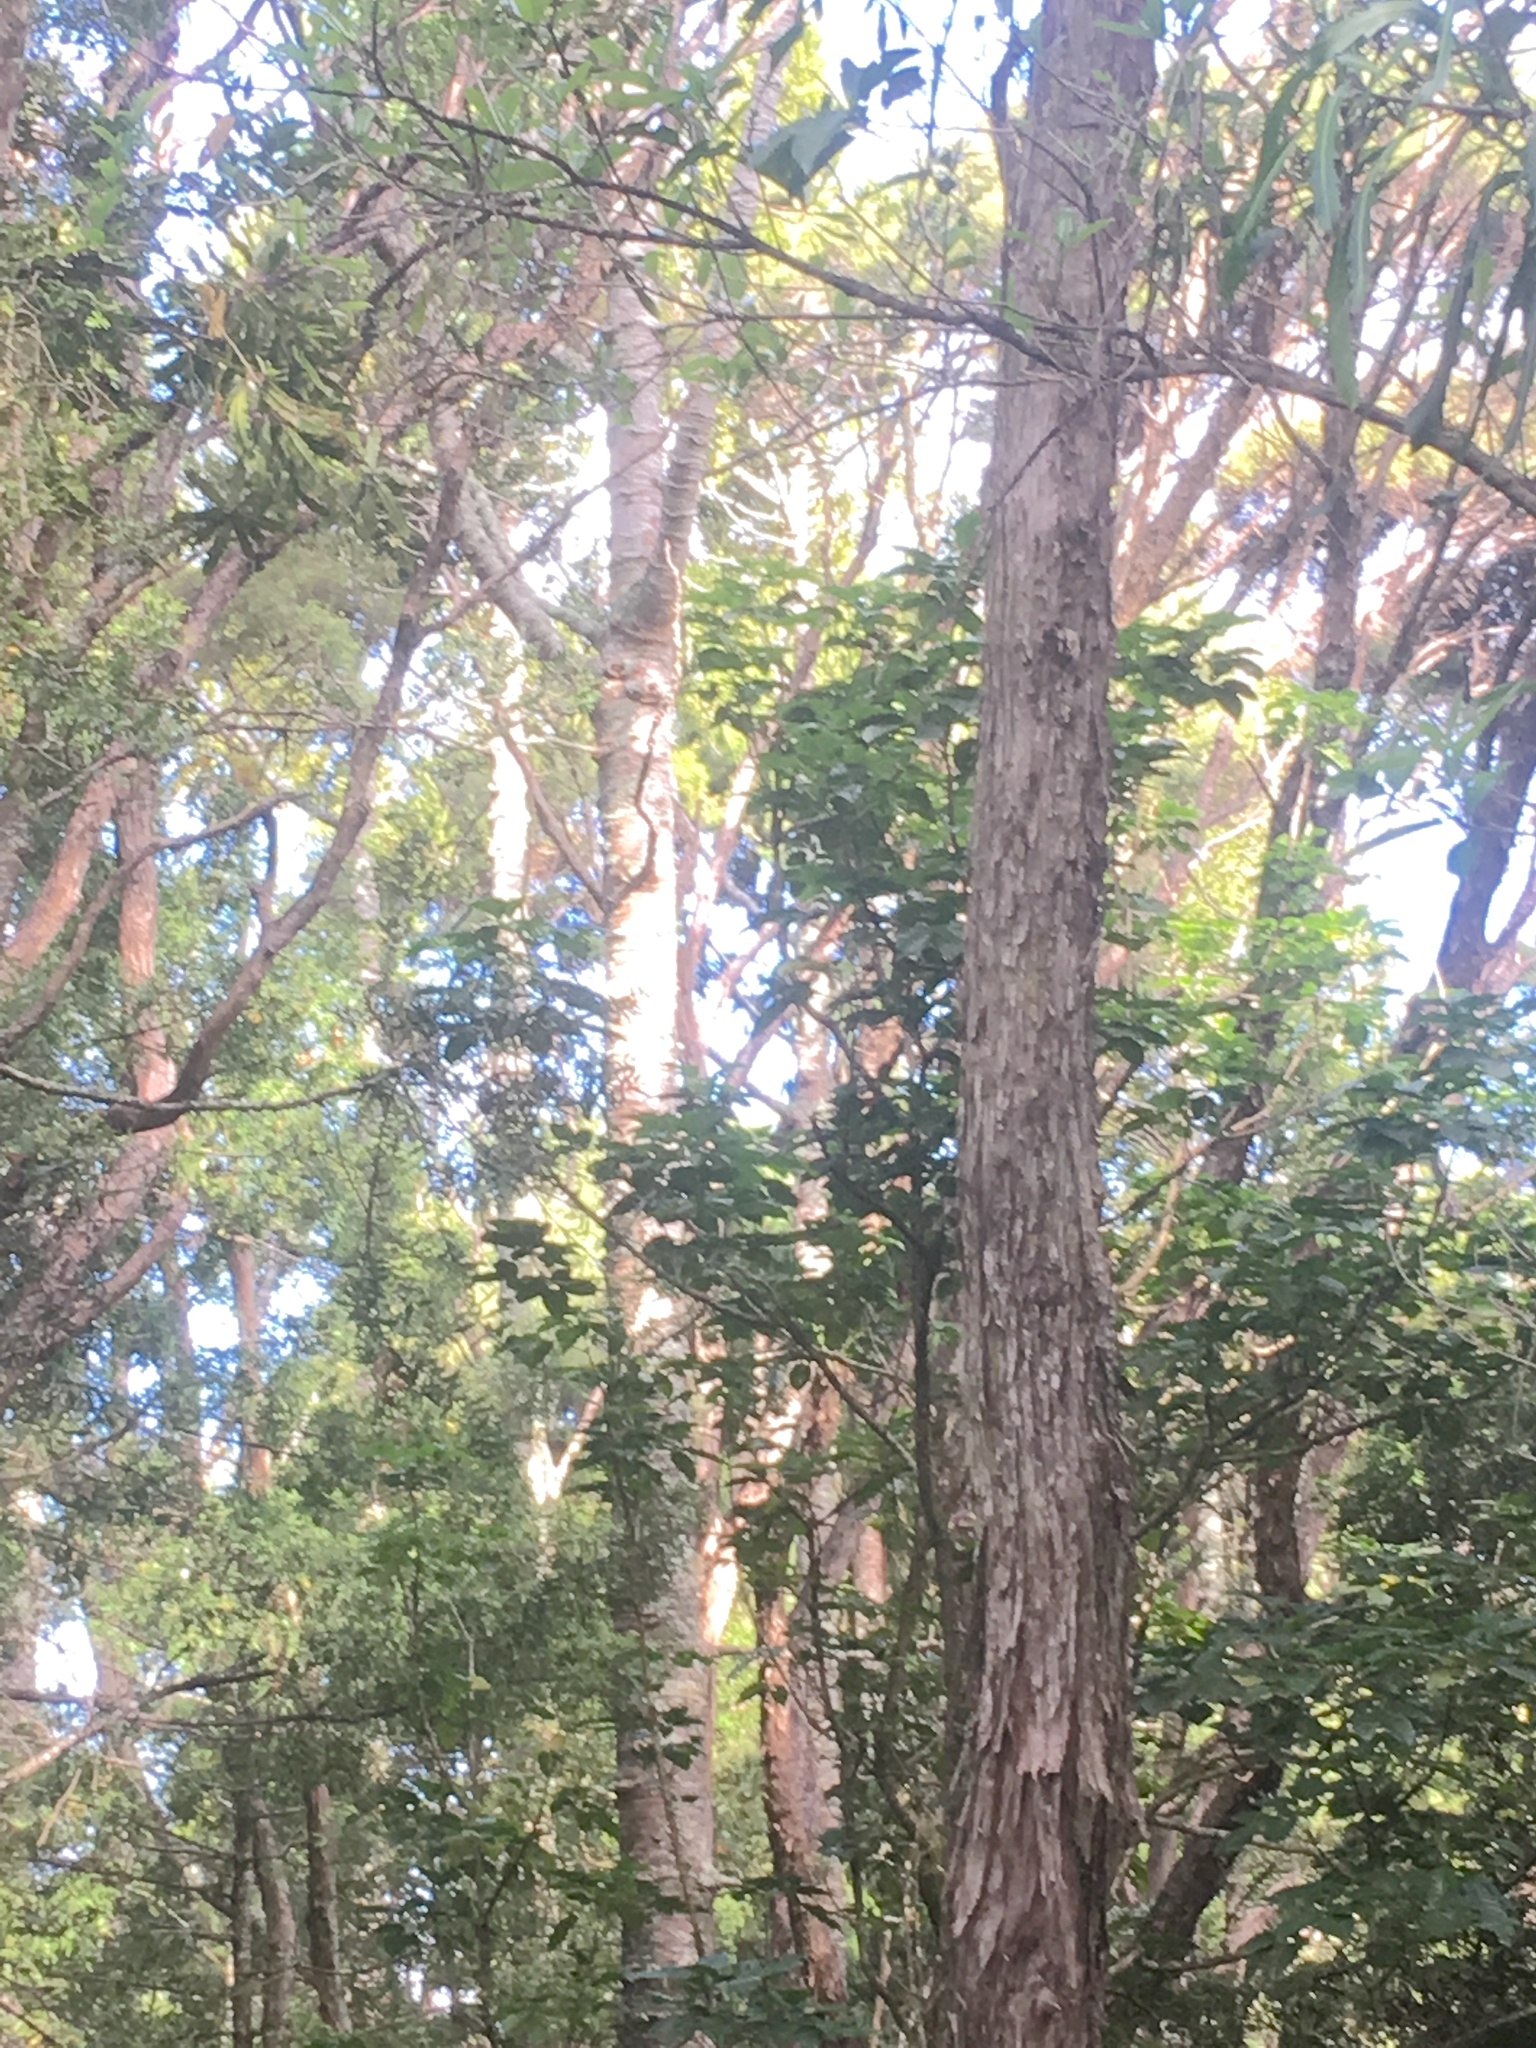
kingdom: Plantae
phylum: Tracheophyta
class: Pinopsida
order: Pinales
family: Araucariaceae
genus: Agathis
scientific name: Agathis australis
